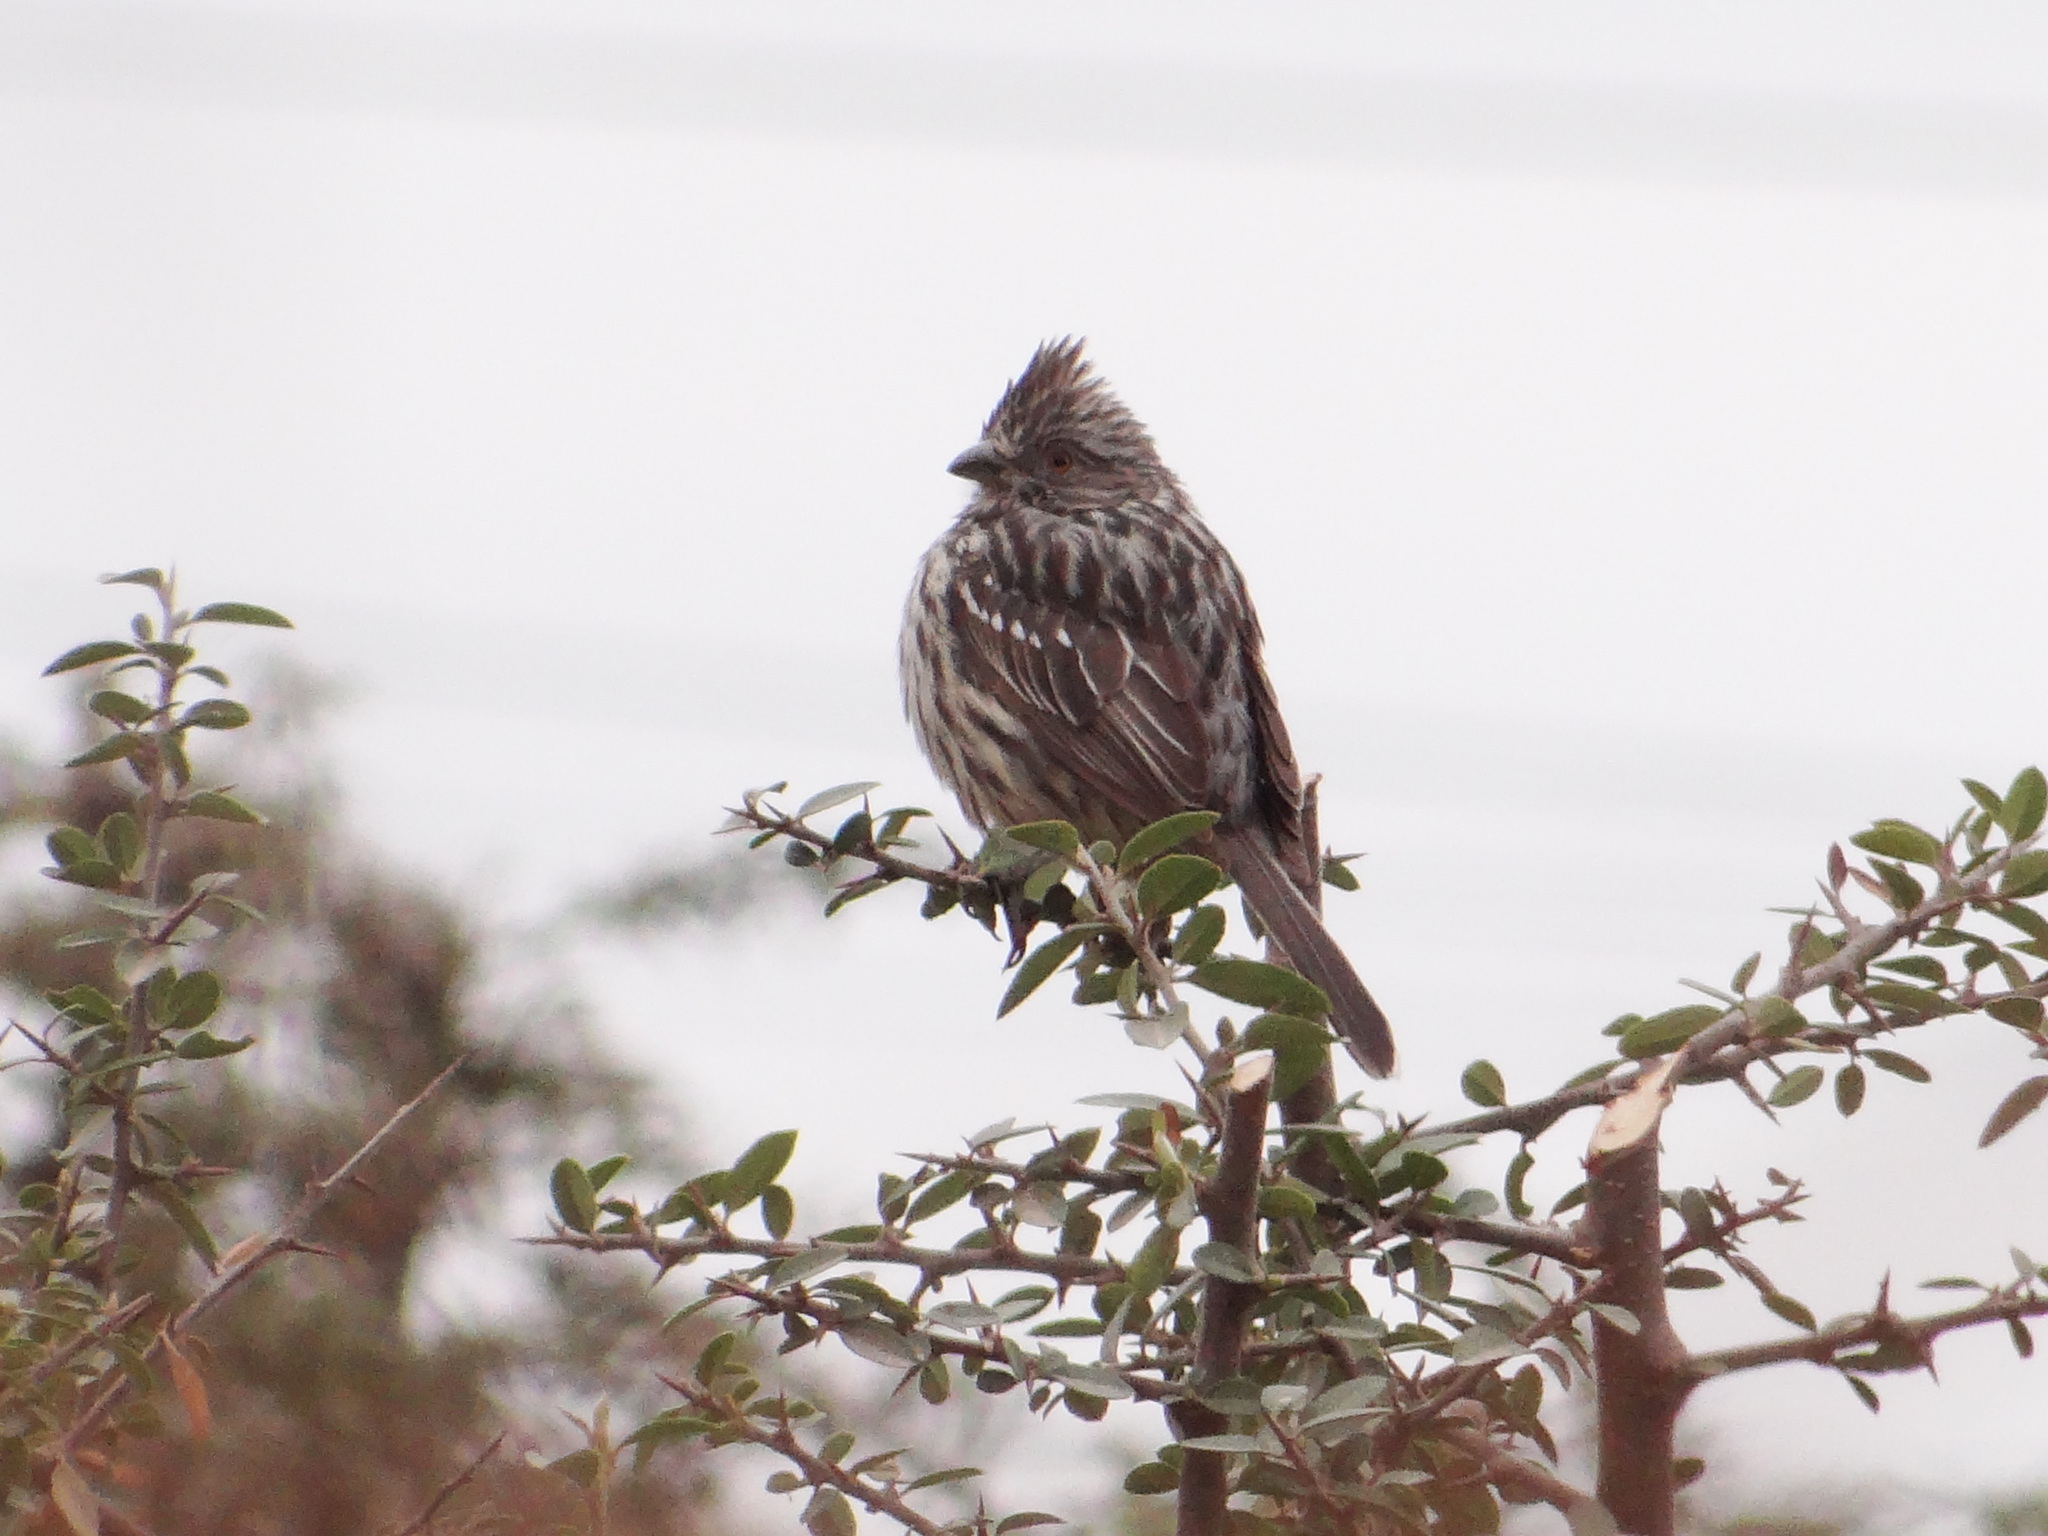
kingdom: Animalia
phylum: Chordata
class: Aves
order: Passeriformes
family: Cotingidae
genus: Phytotoma
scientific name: Phytotoma rutila
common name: White-tipped plantcutter
